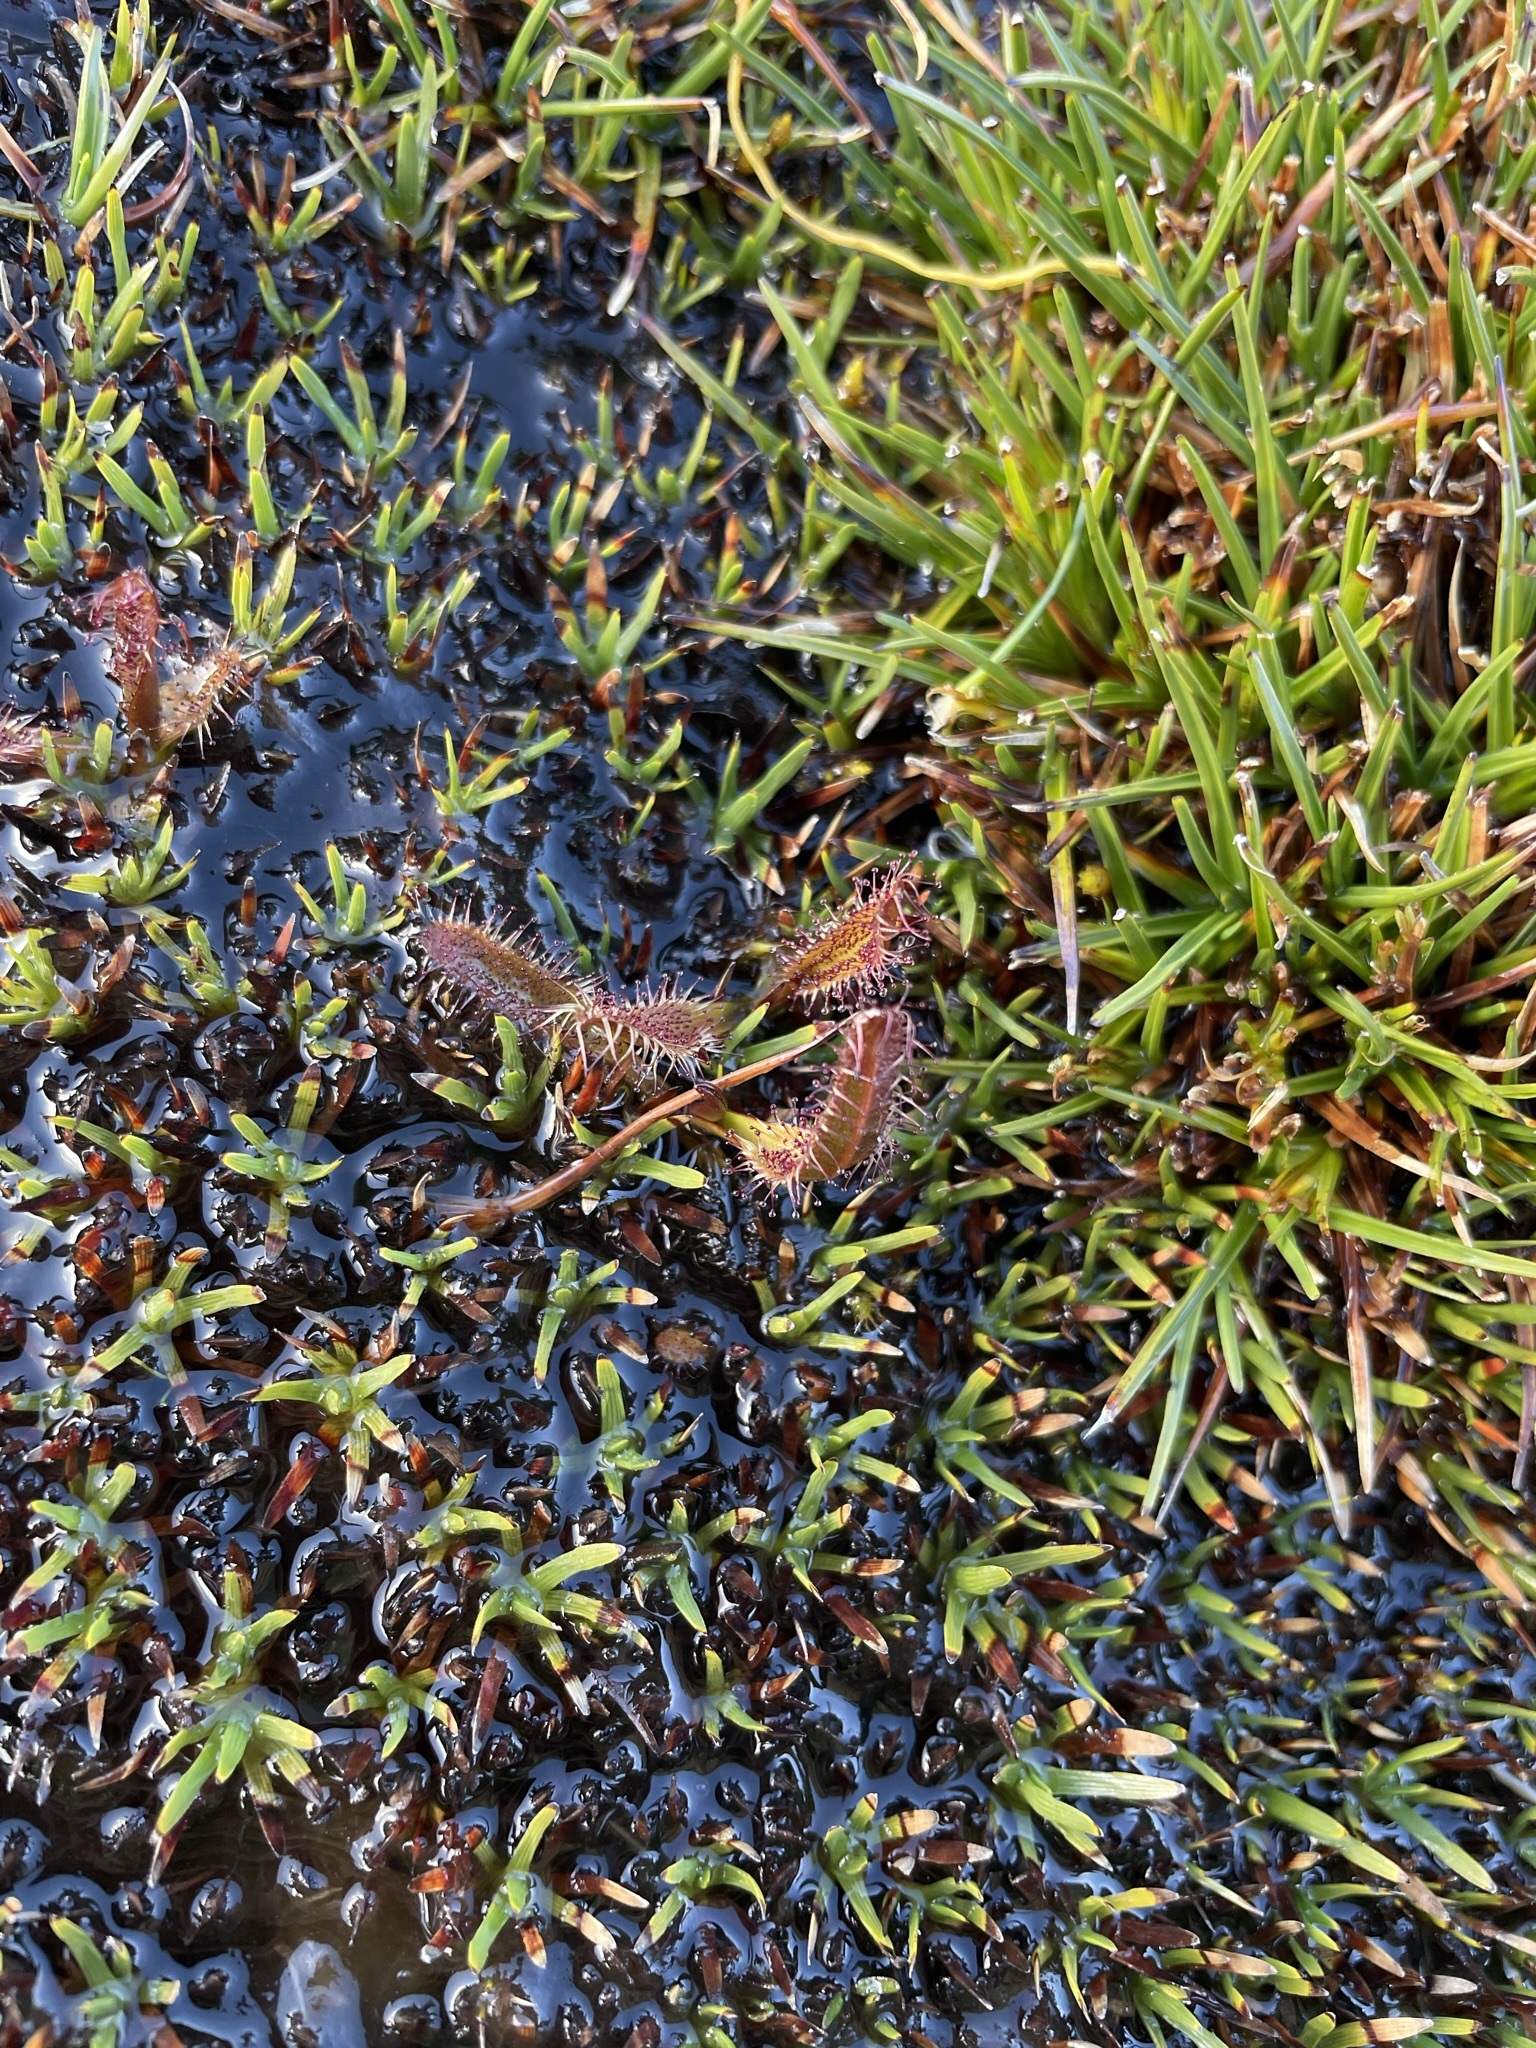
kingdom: Plantae
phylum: Tracheophyta
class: Magnoliopsida
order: Caryophyllales
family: Droseraceae
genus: Drosera
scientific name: Drosera arcturi
